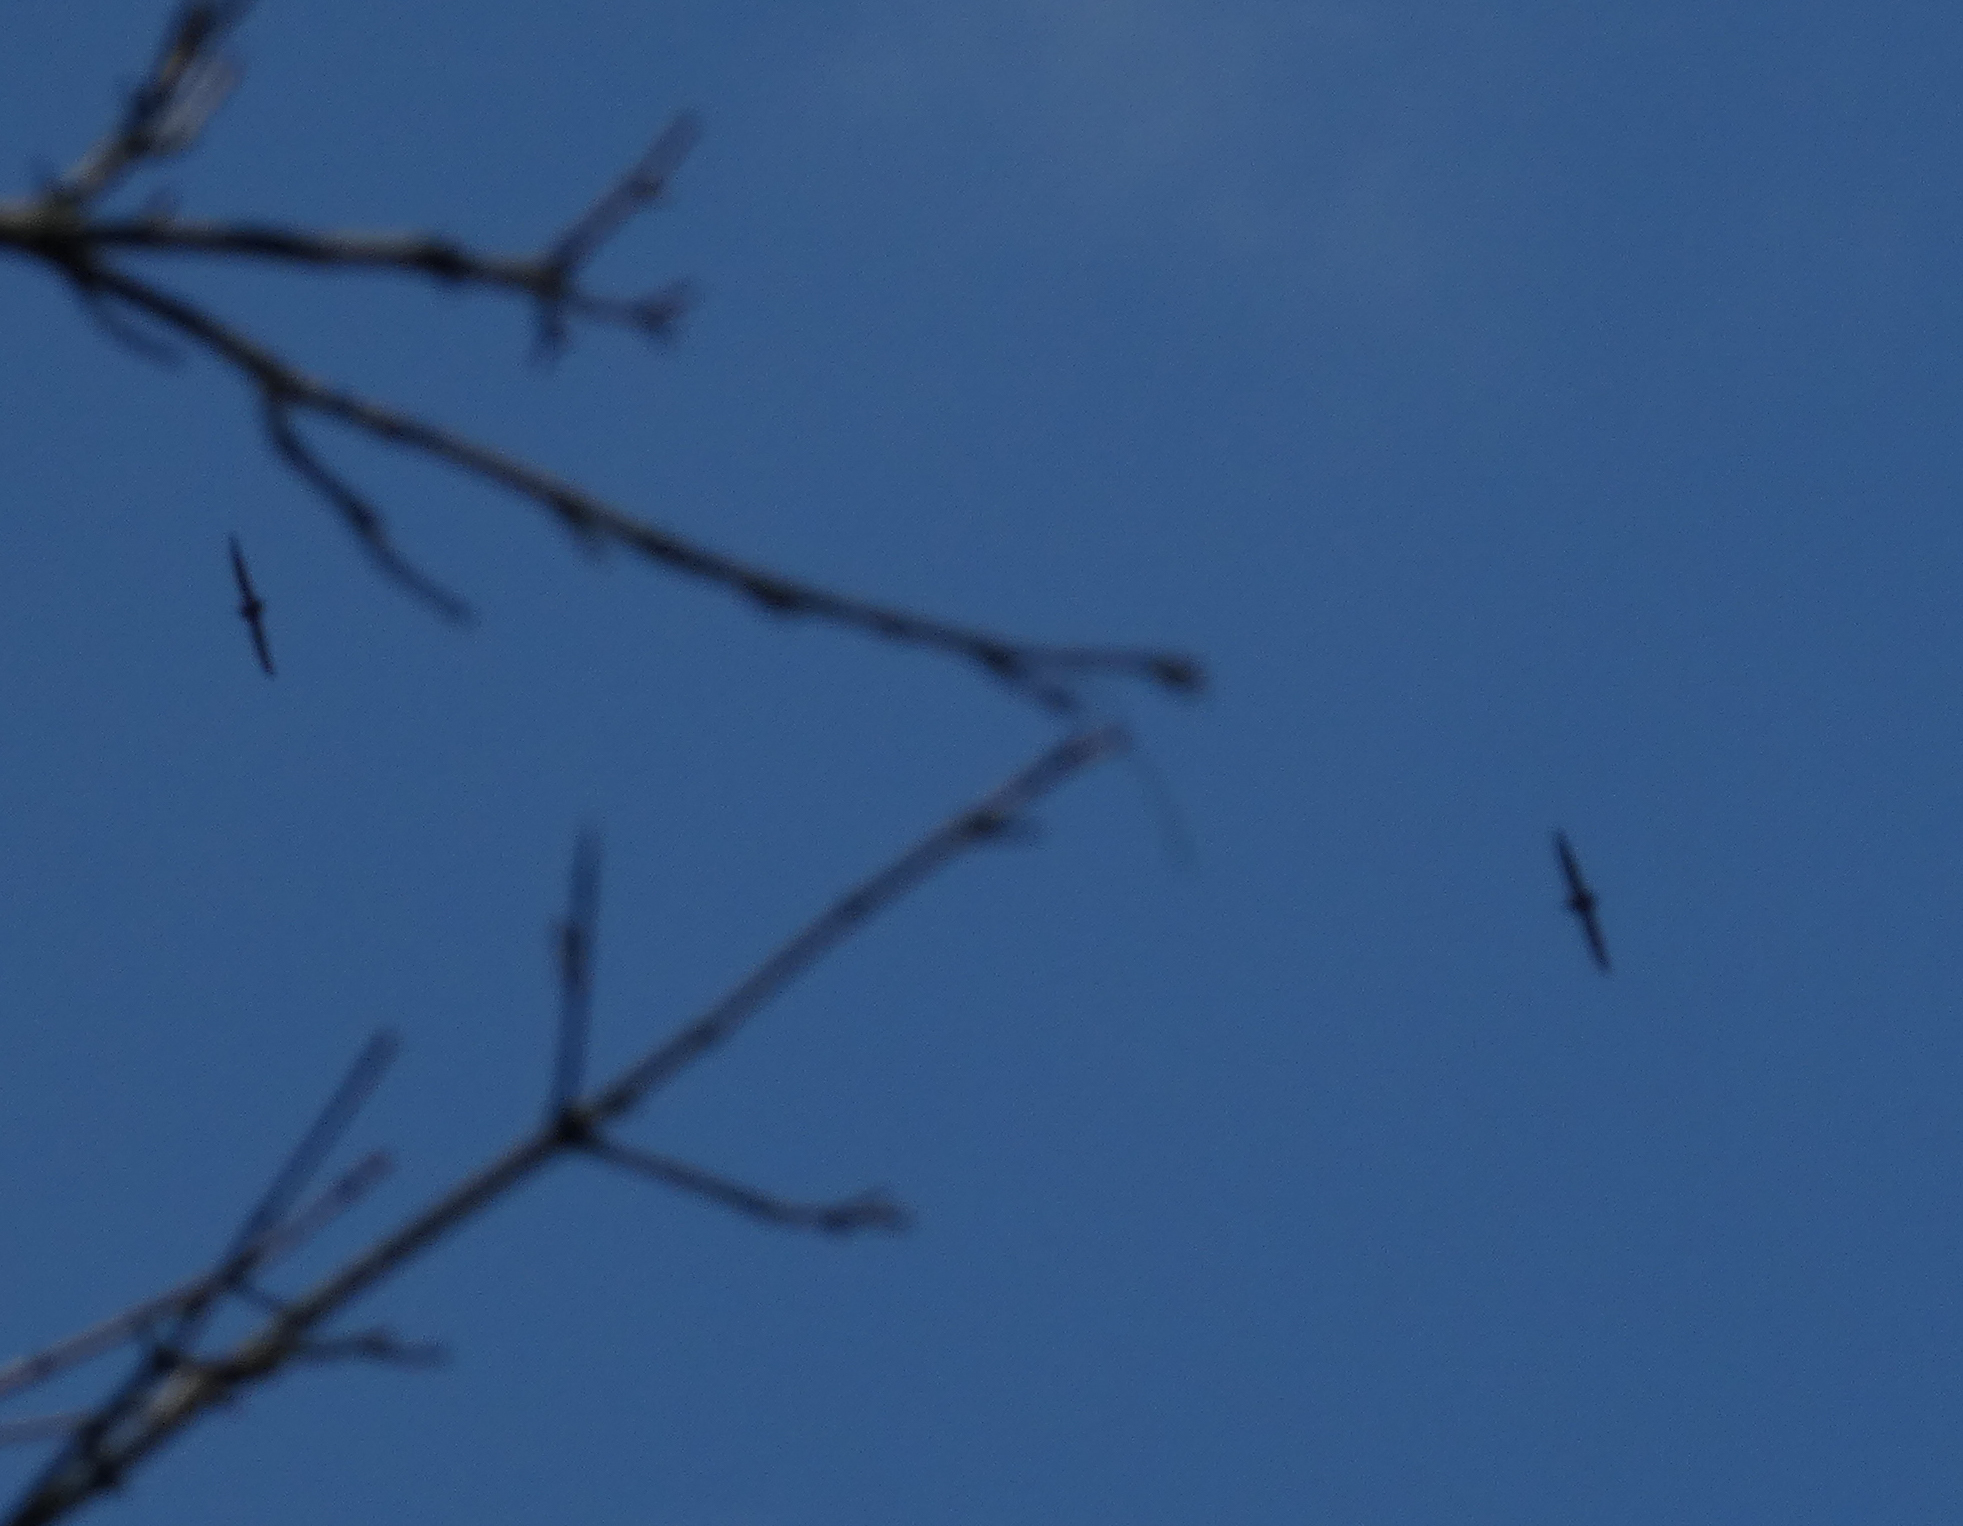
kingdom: Animalia
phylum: Chordata
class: Aves
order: Apodiformes
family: Apodidae
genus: Chaetura
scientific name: Chaetura pelagica
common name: Chimney swift
